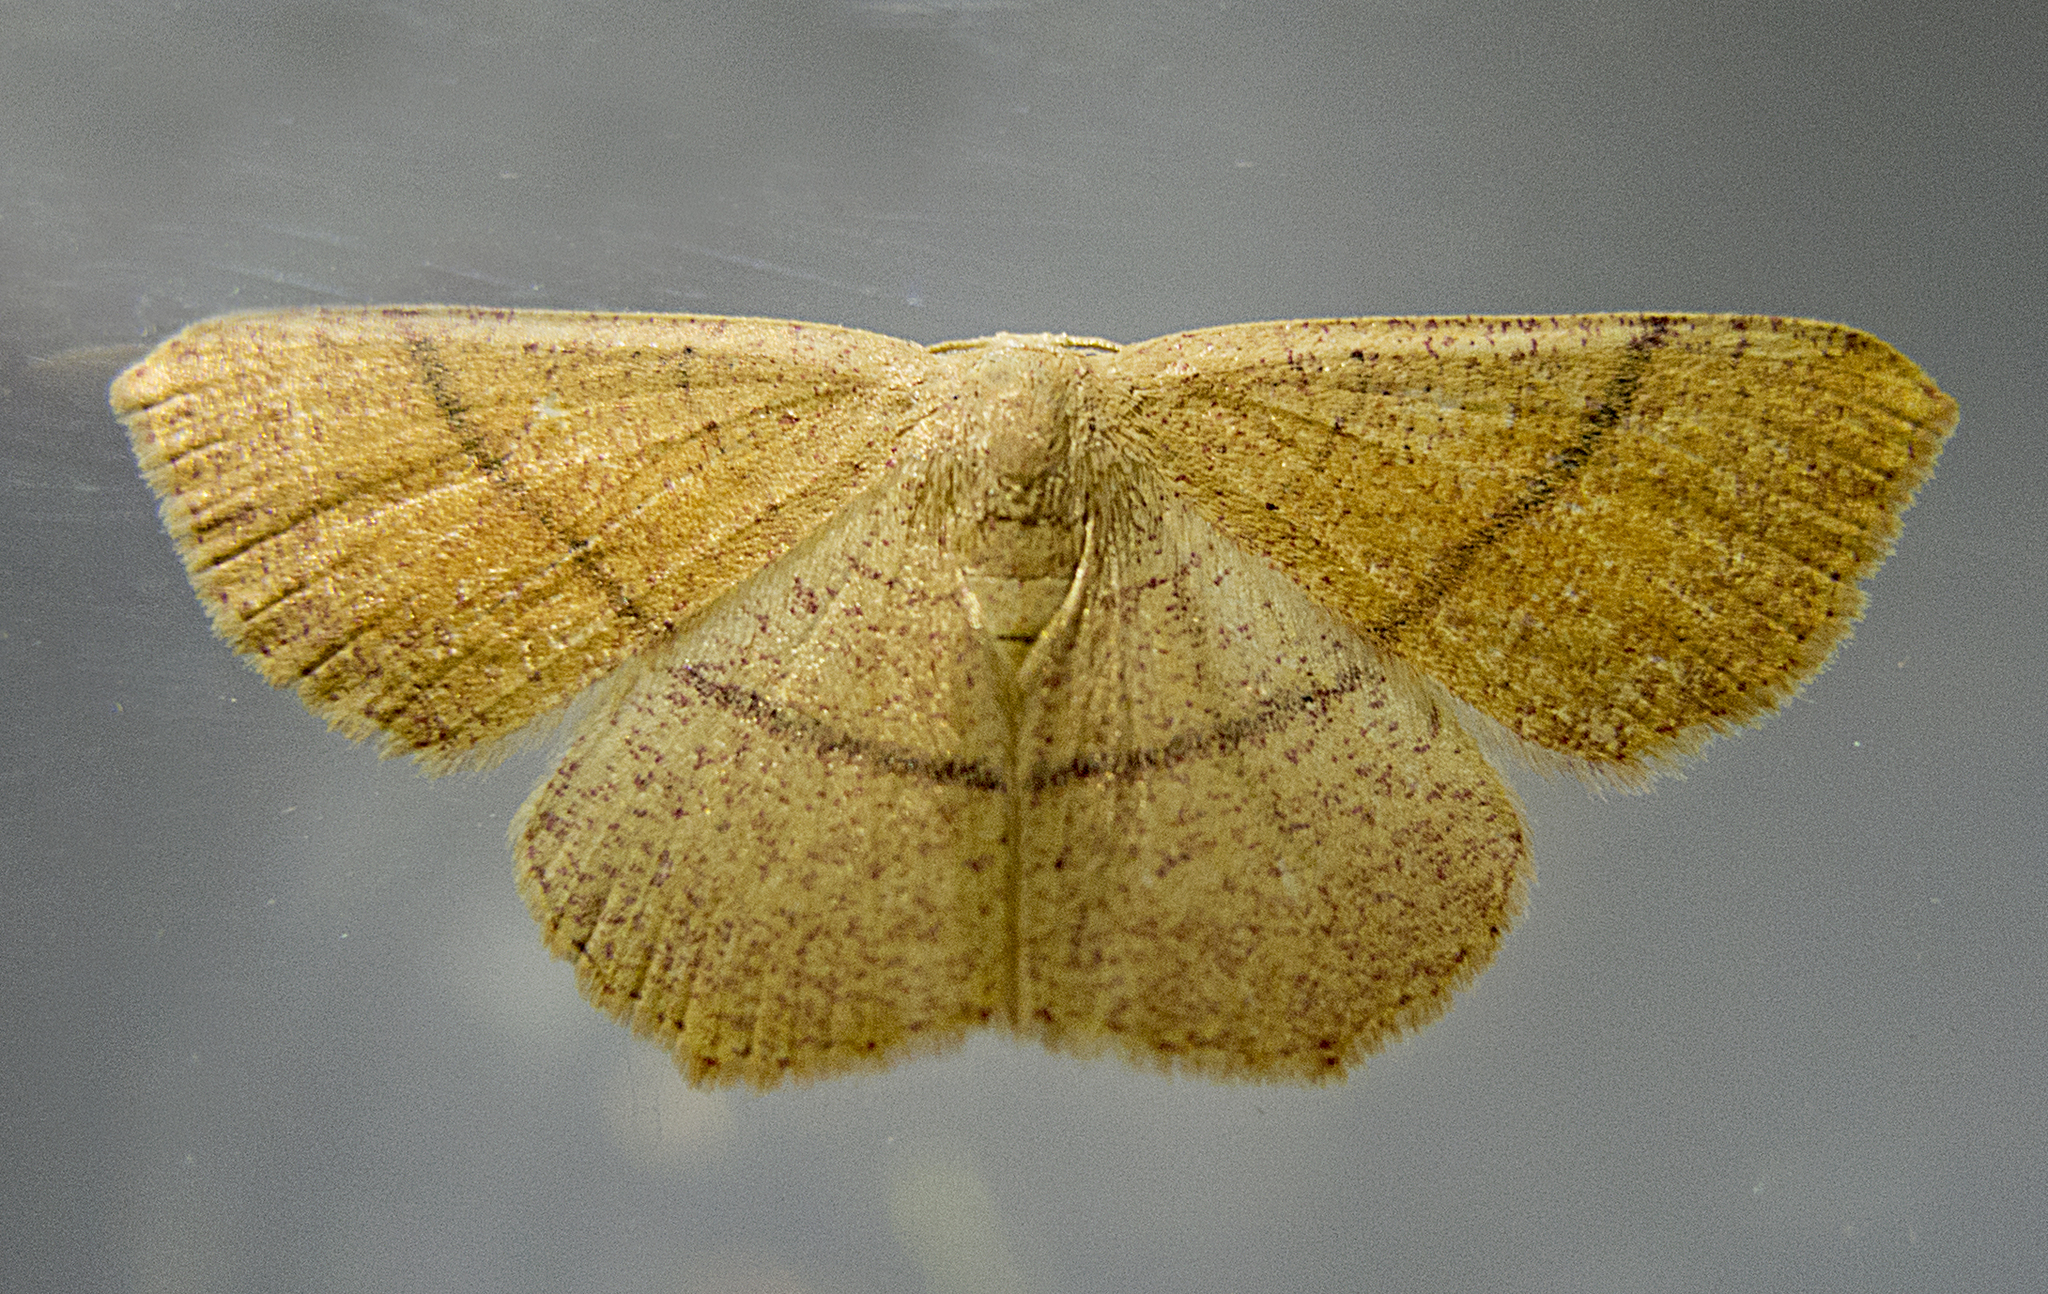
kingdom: Animalia
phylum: Arthropoda
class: Insecta
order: Lepidoptera
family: Geometridae
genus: Cyclophora
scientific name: Cyclophora suppunctaria
